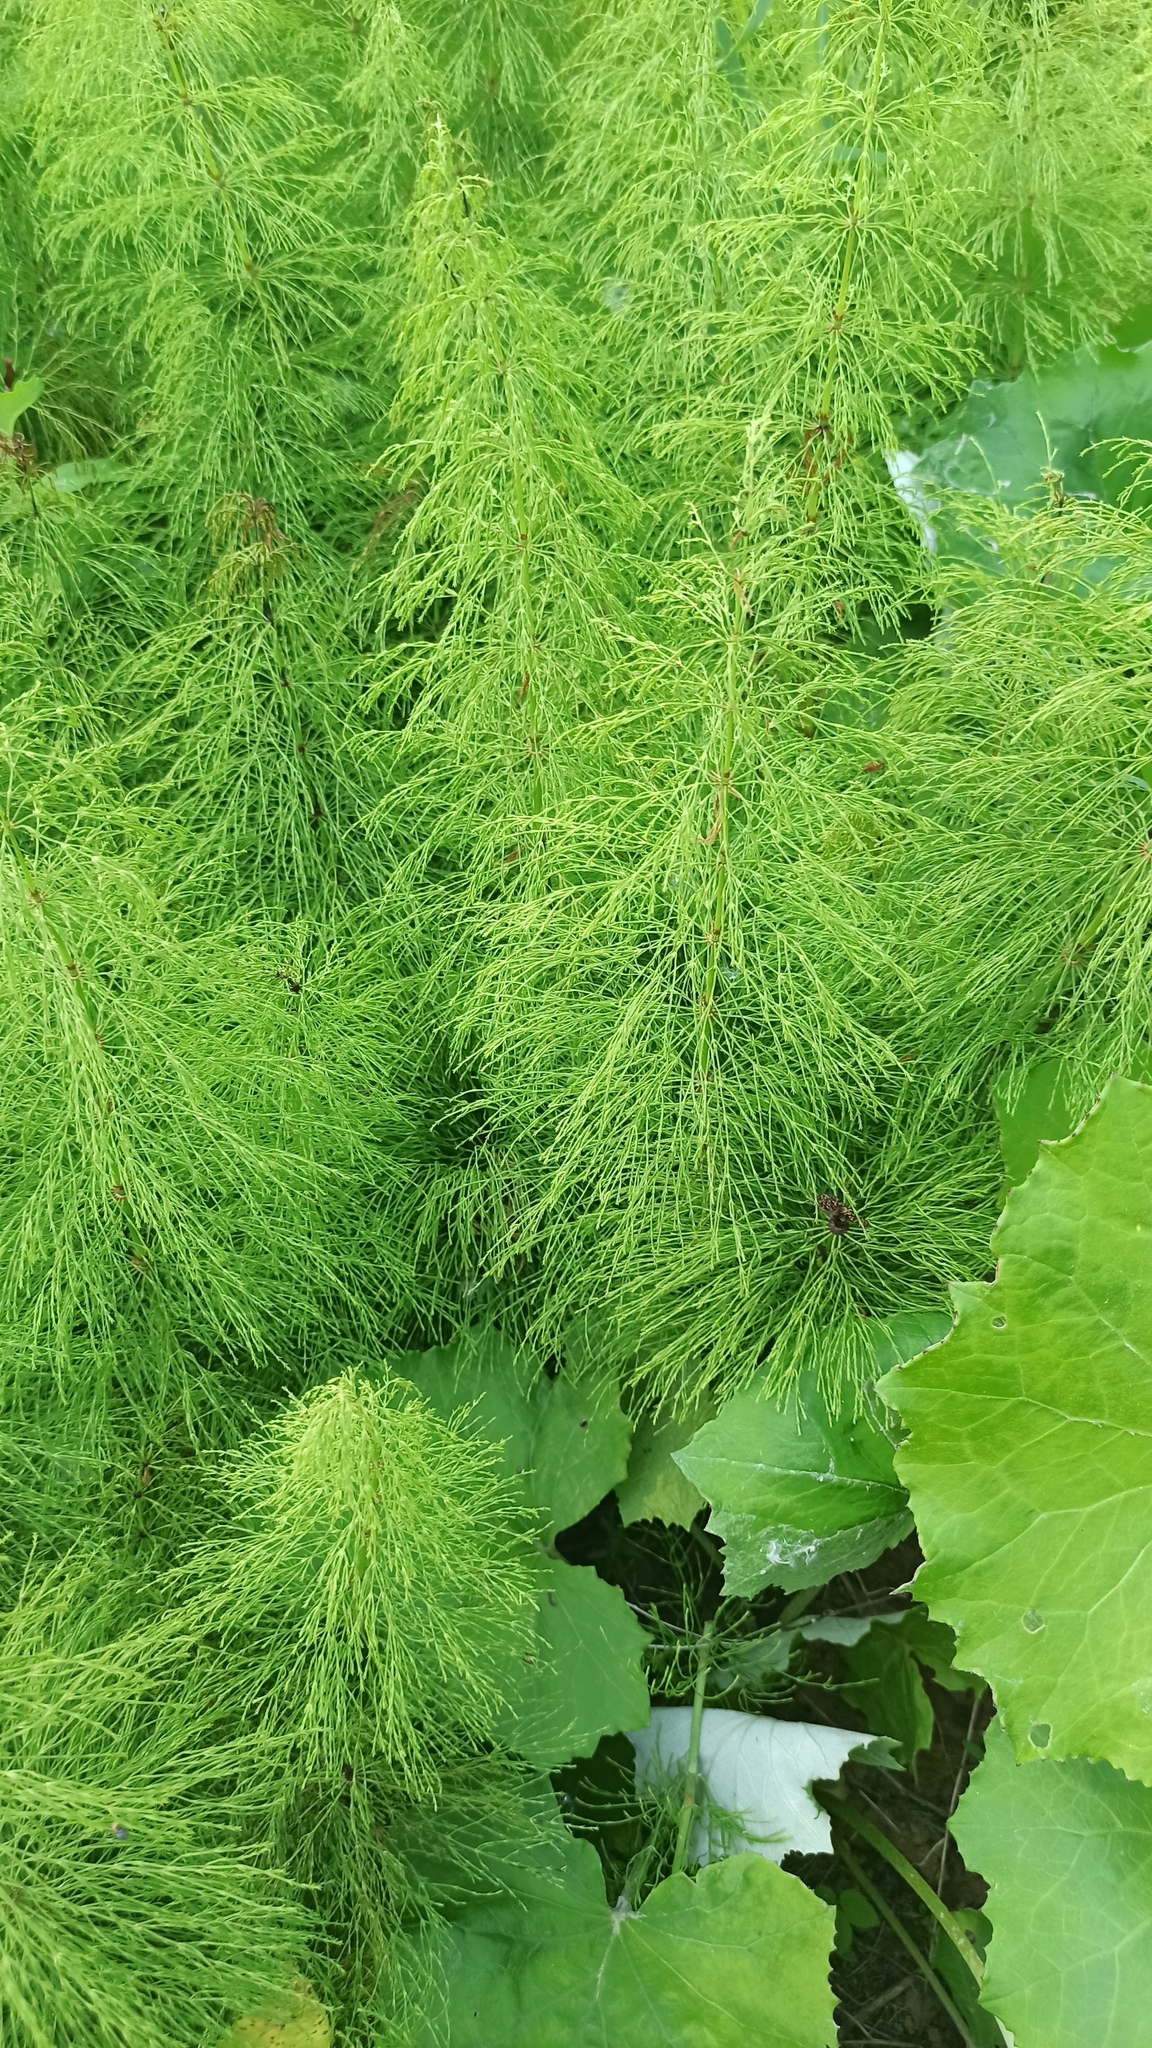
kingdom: Plantae
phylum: Tracheophyta
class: Polypodiopsida
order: Equisetales
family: Equisetaceae
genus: Equisetum
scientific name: Equisetum sylvaticum
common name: Wood horsetail
